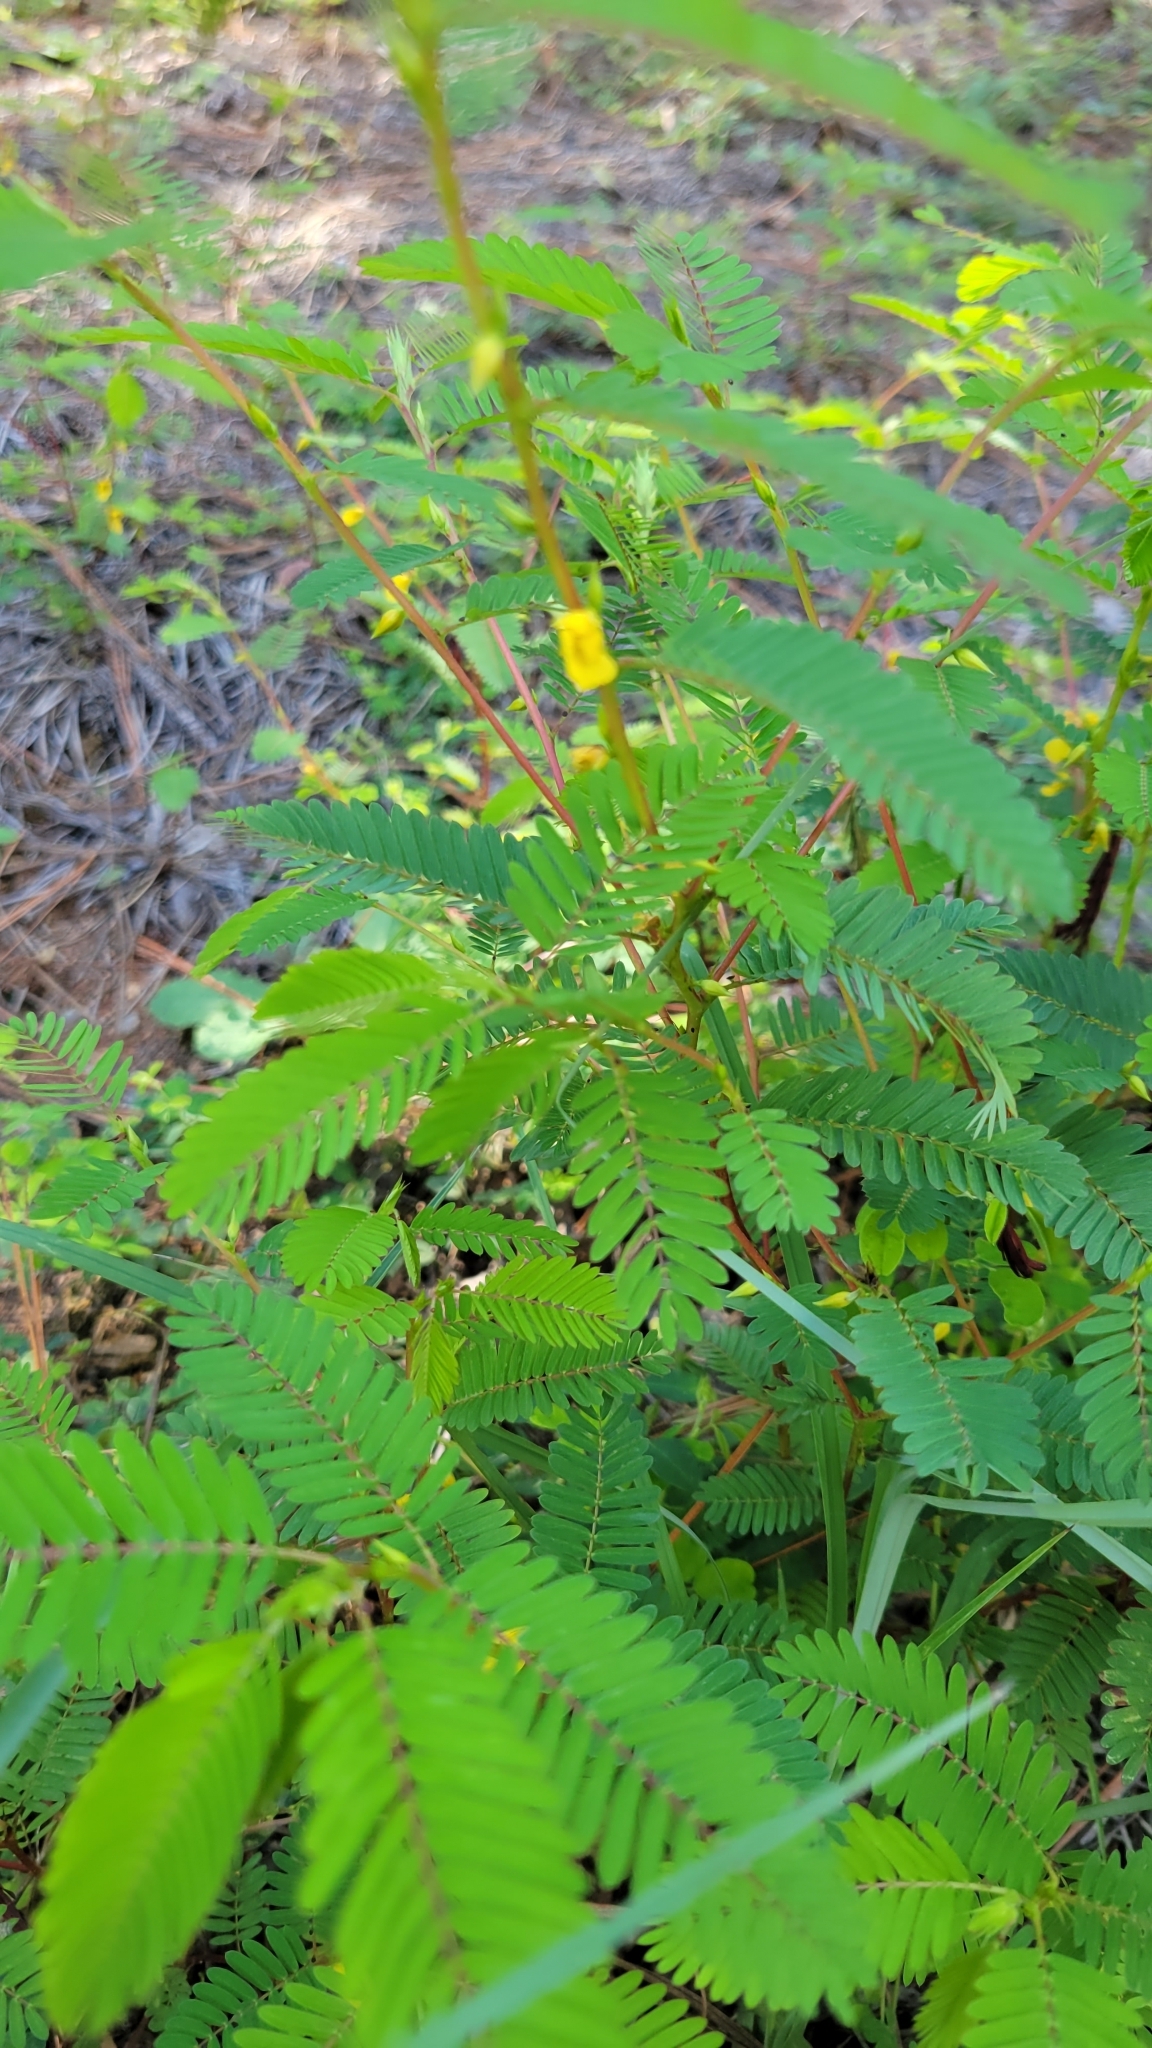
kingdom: Plantae
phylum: Tracheophyta
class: Magnoliopsida
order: Fabales
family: Fabaceae
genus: Chamaecrista
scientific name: Chamaecrista nictitans
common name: Sensitive cassia
